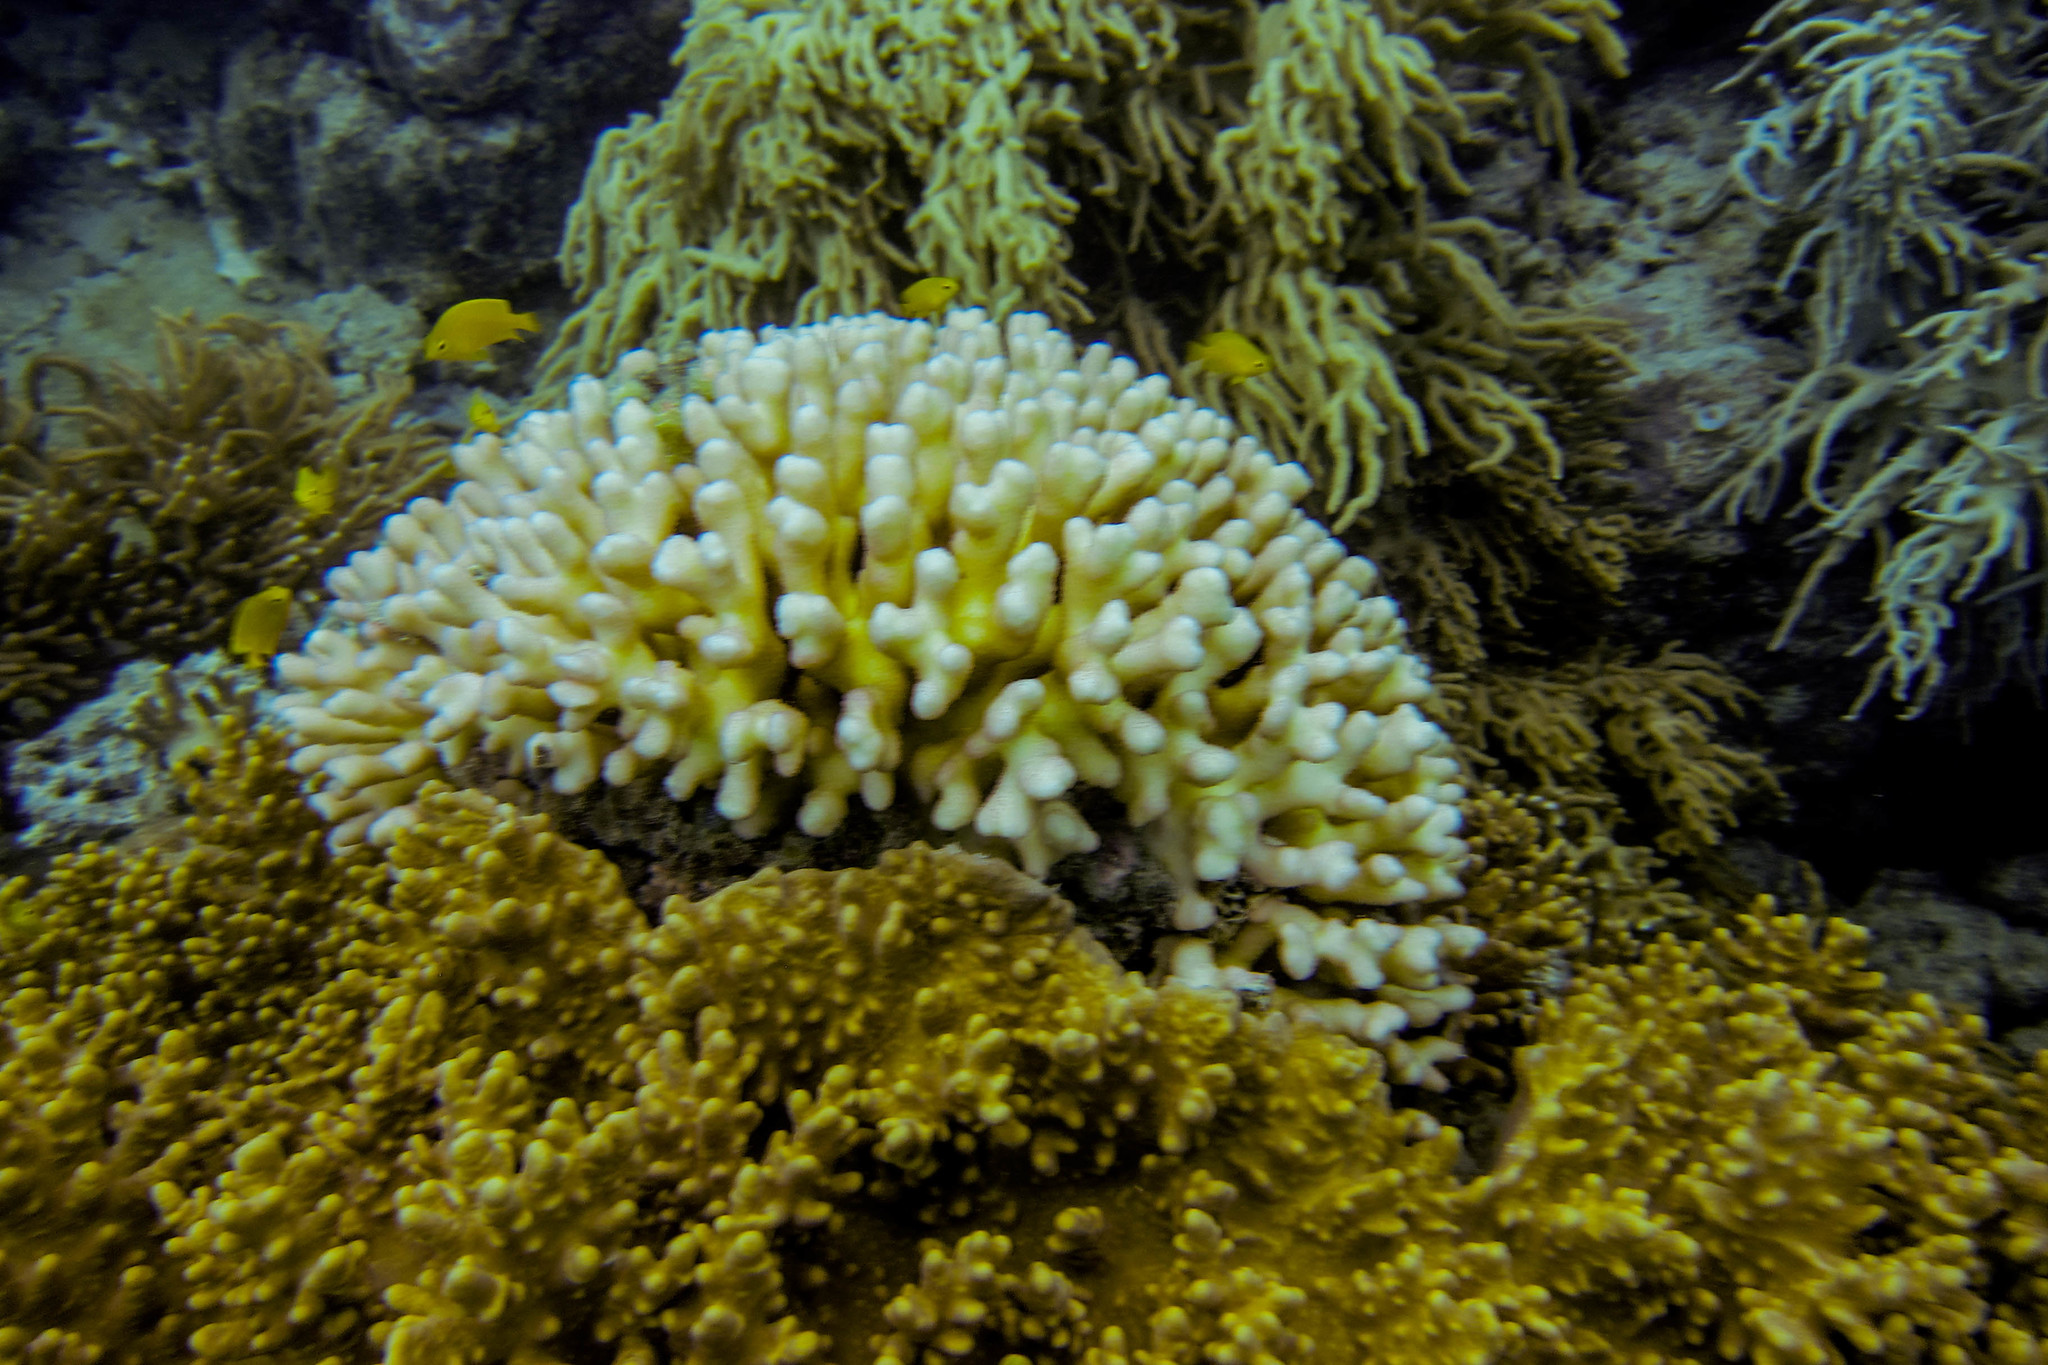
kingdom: Animalia
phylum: Cnidaria
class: Anthozoa
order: Scleractinia
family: Pocilloporidae
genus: Stylophora
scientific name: Stylophora pistillata
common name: Hood coral
